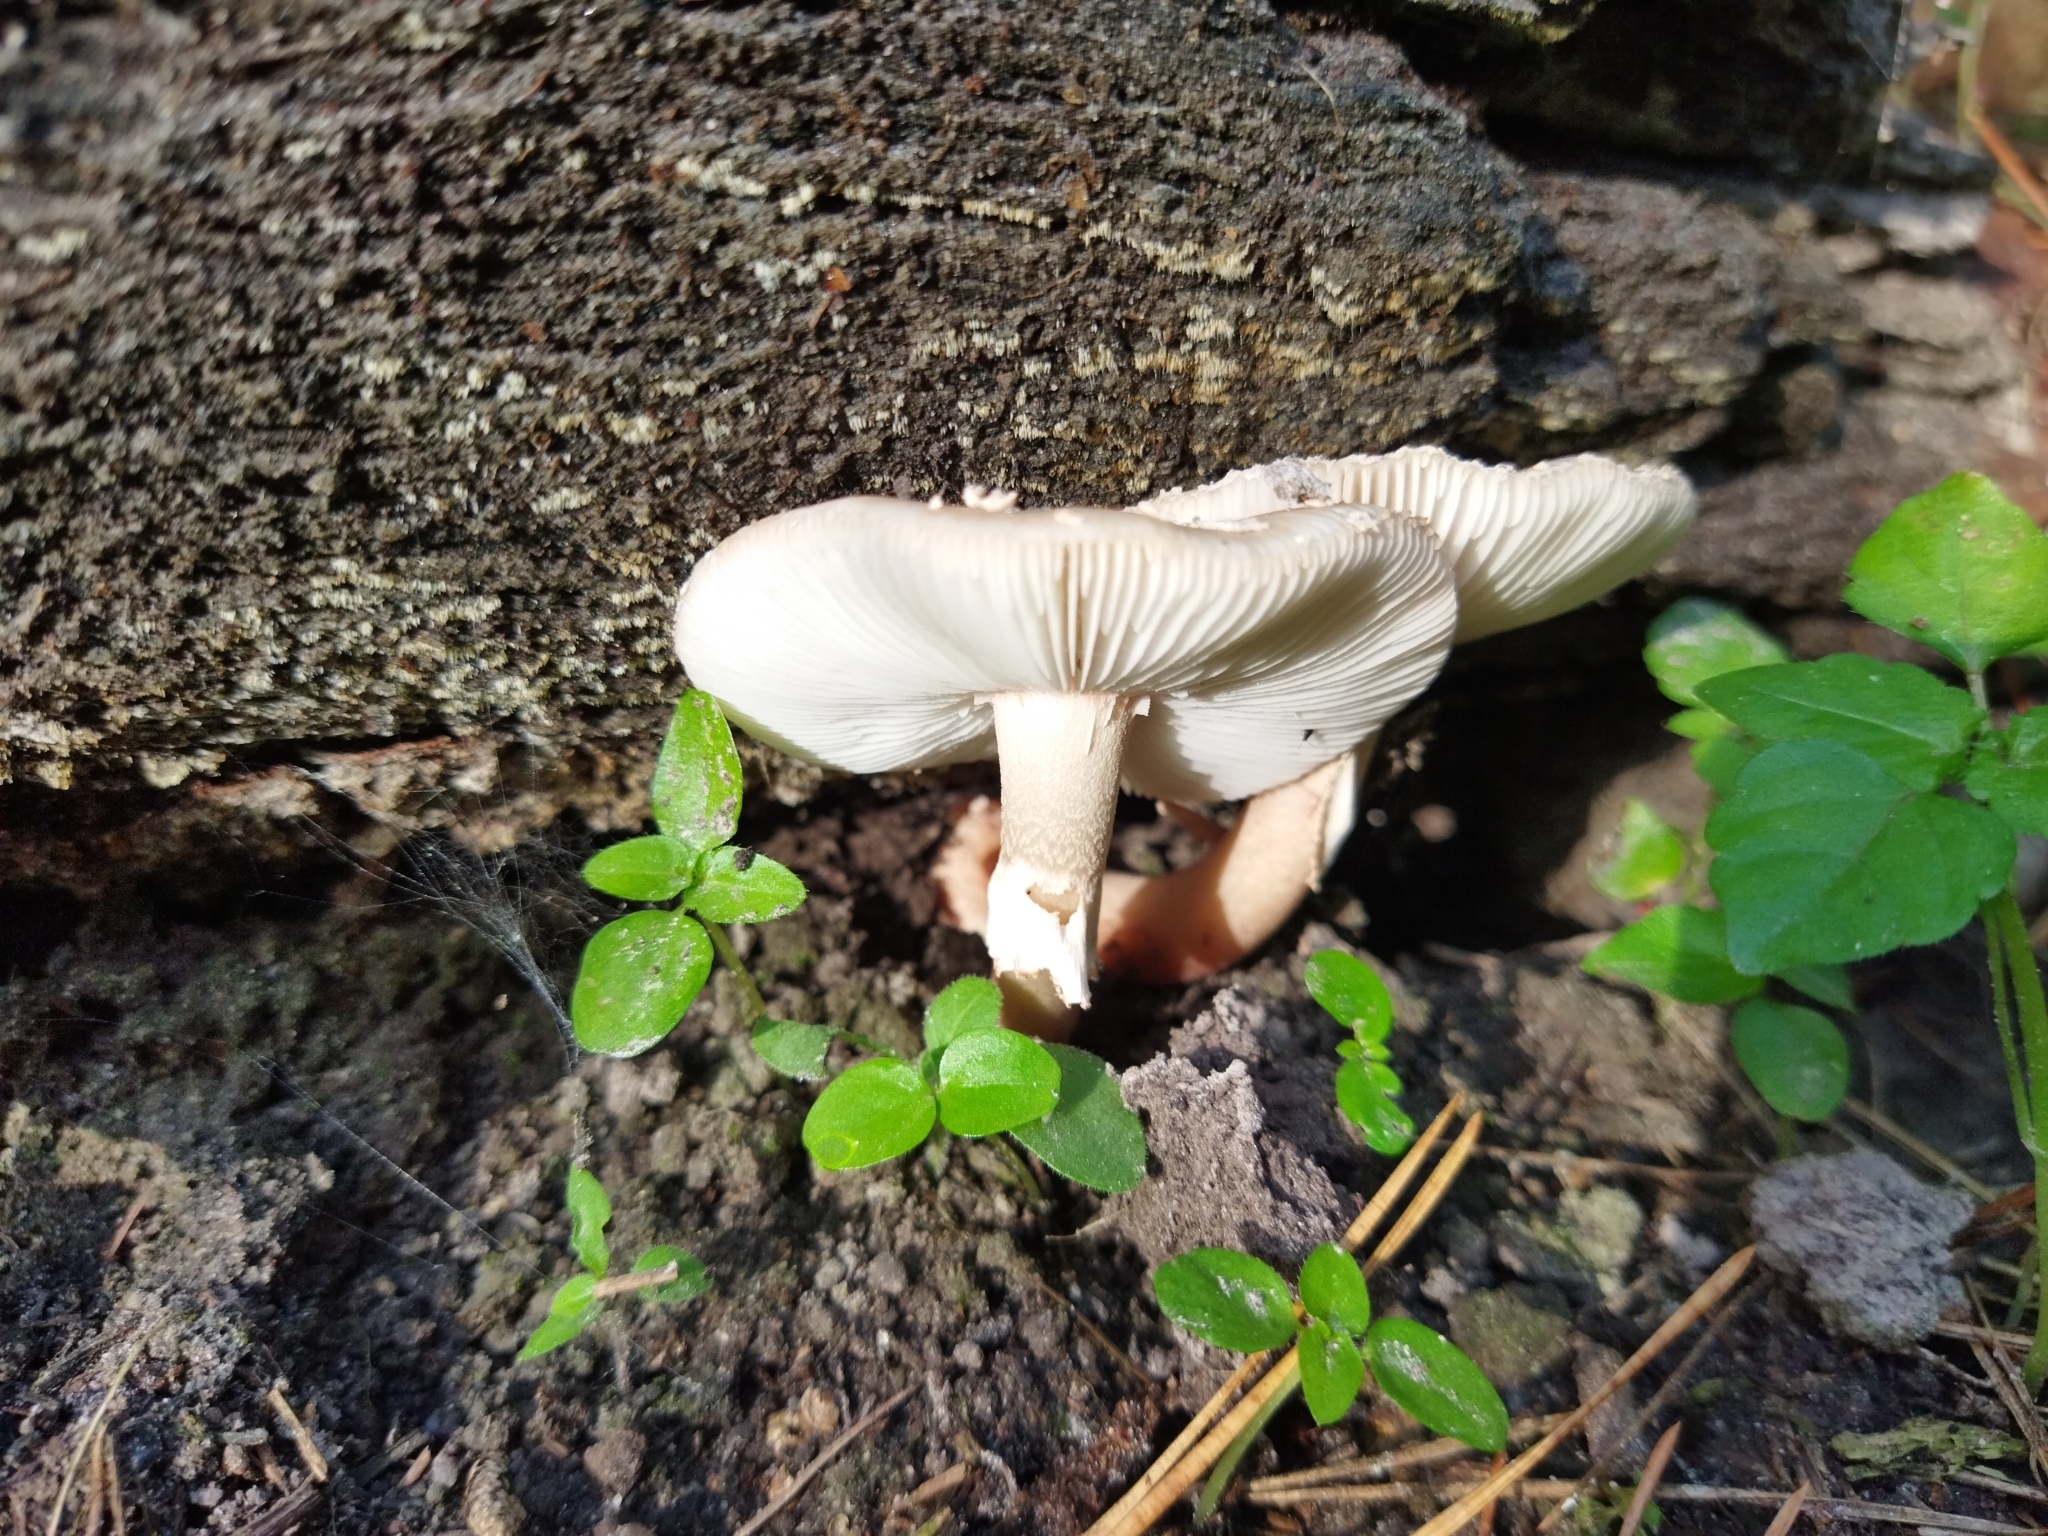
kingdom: Fungi
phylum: Basidiomycota
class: Agaricomycetes
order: Agaricales
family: Amanitaceae
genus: Amanita
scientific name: Amanita pantherina
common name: Panthercap
